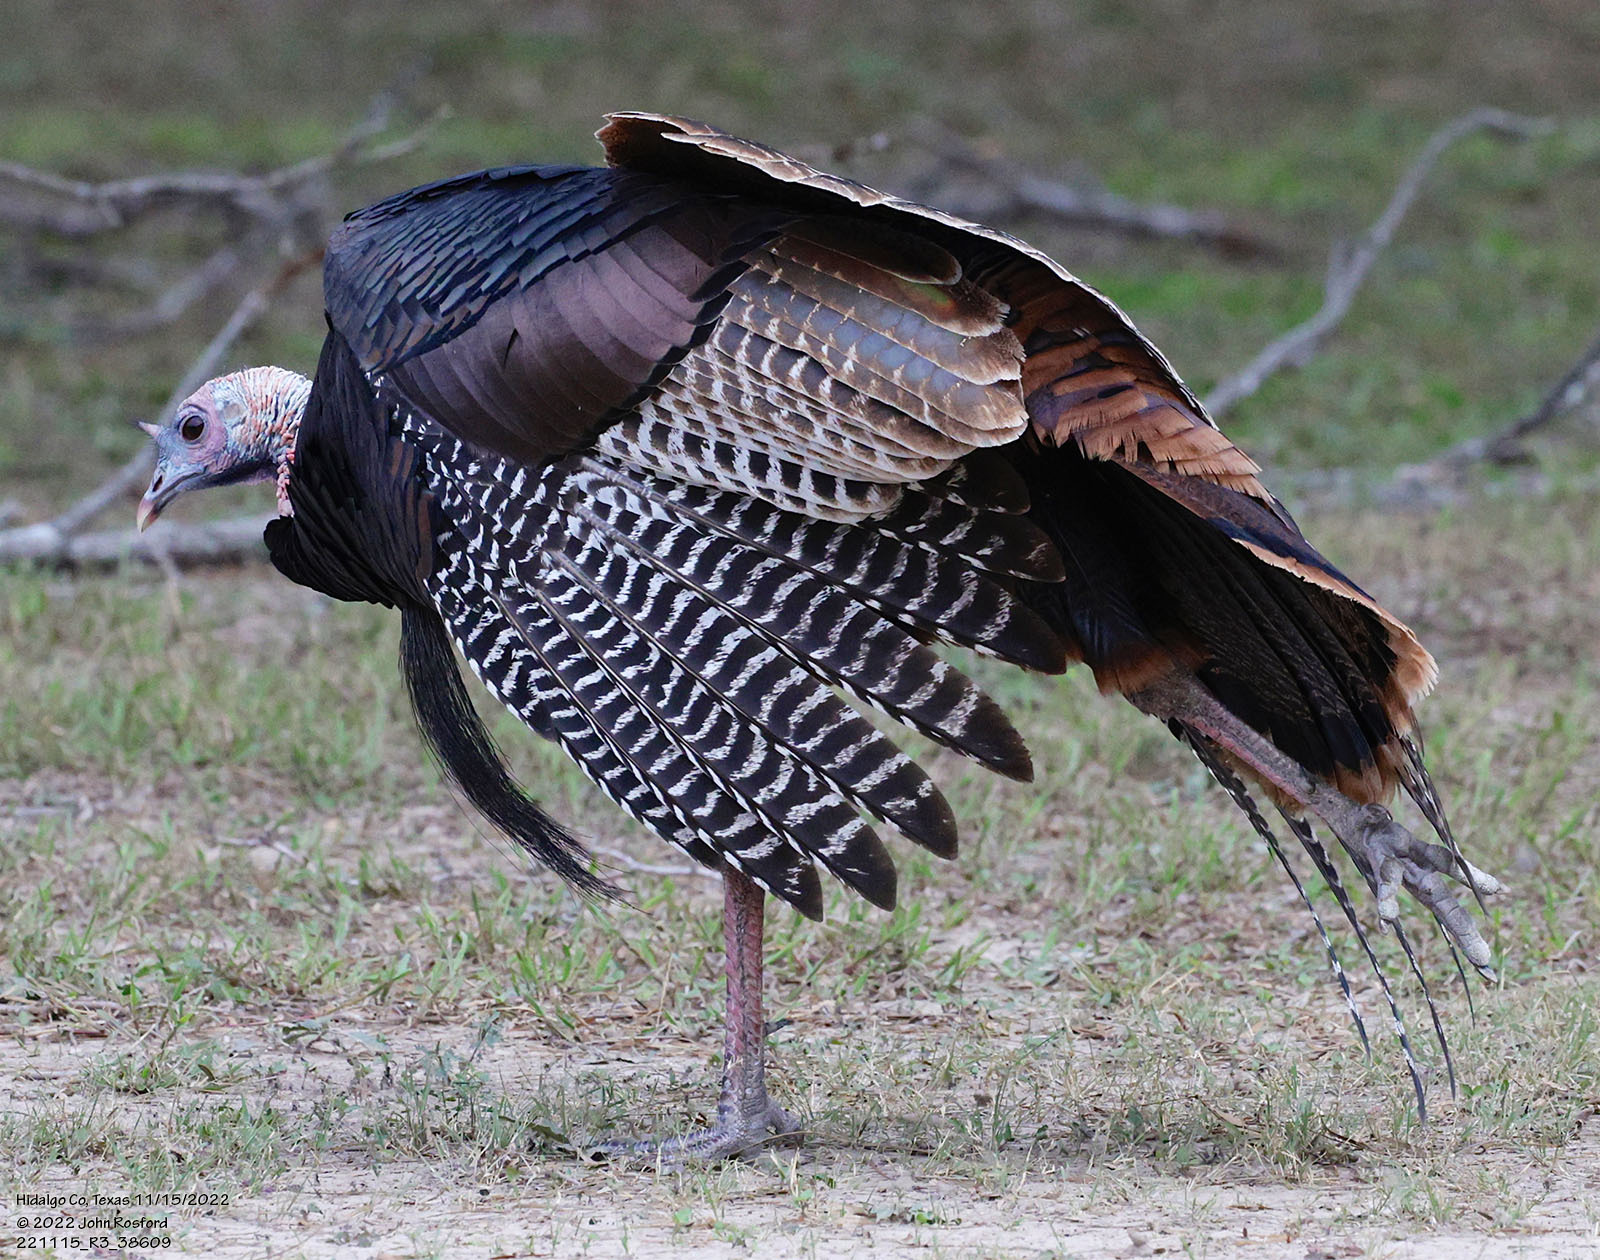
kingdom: Animalia
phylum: Chordata
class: Aves
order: Galliformes
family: Phasianidae
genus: Meleagris
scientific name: Meleagris gallopavo
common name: Wild turkey
